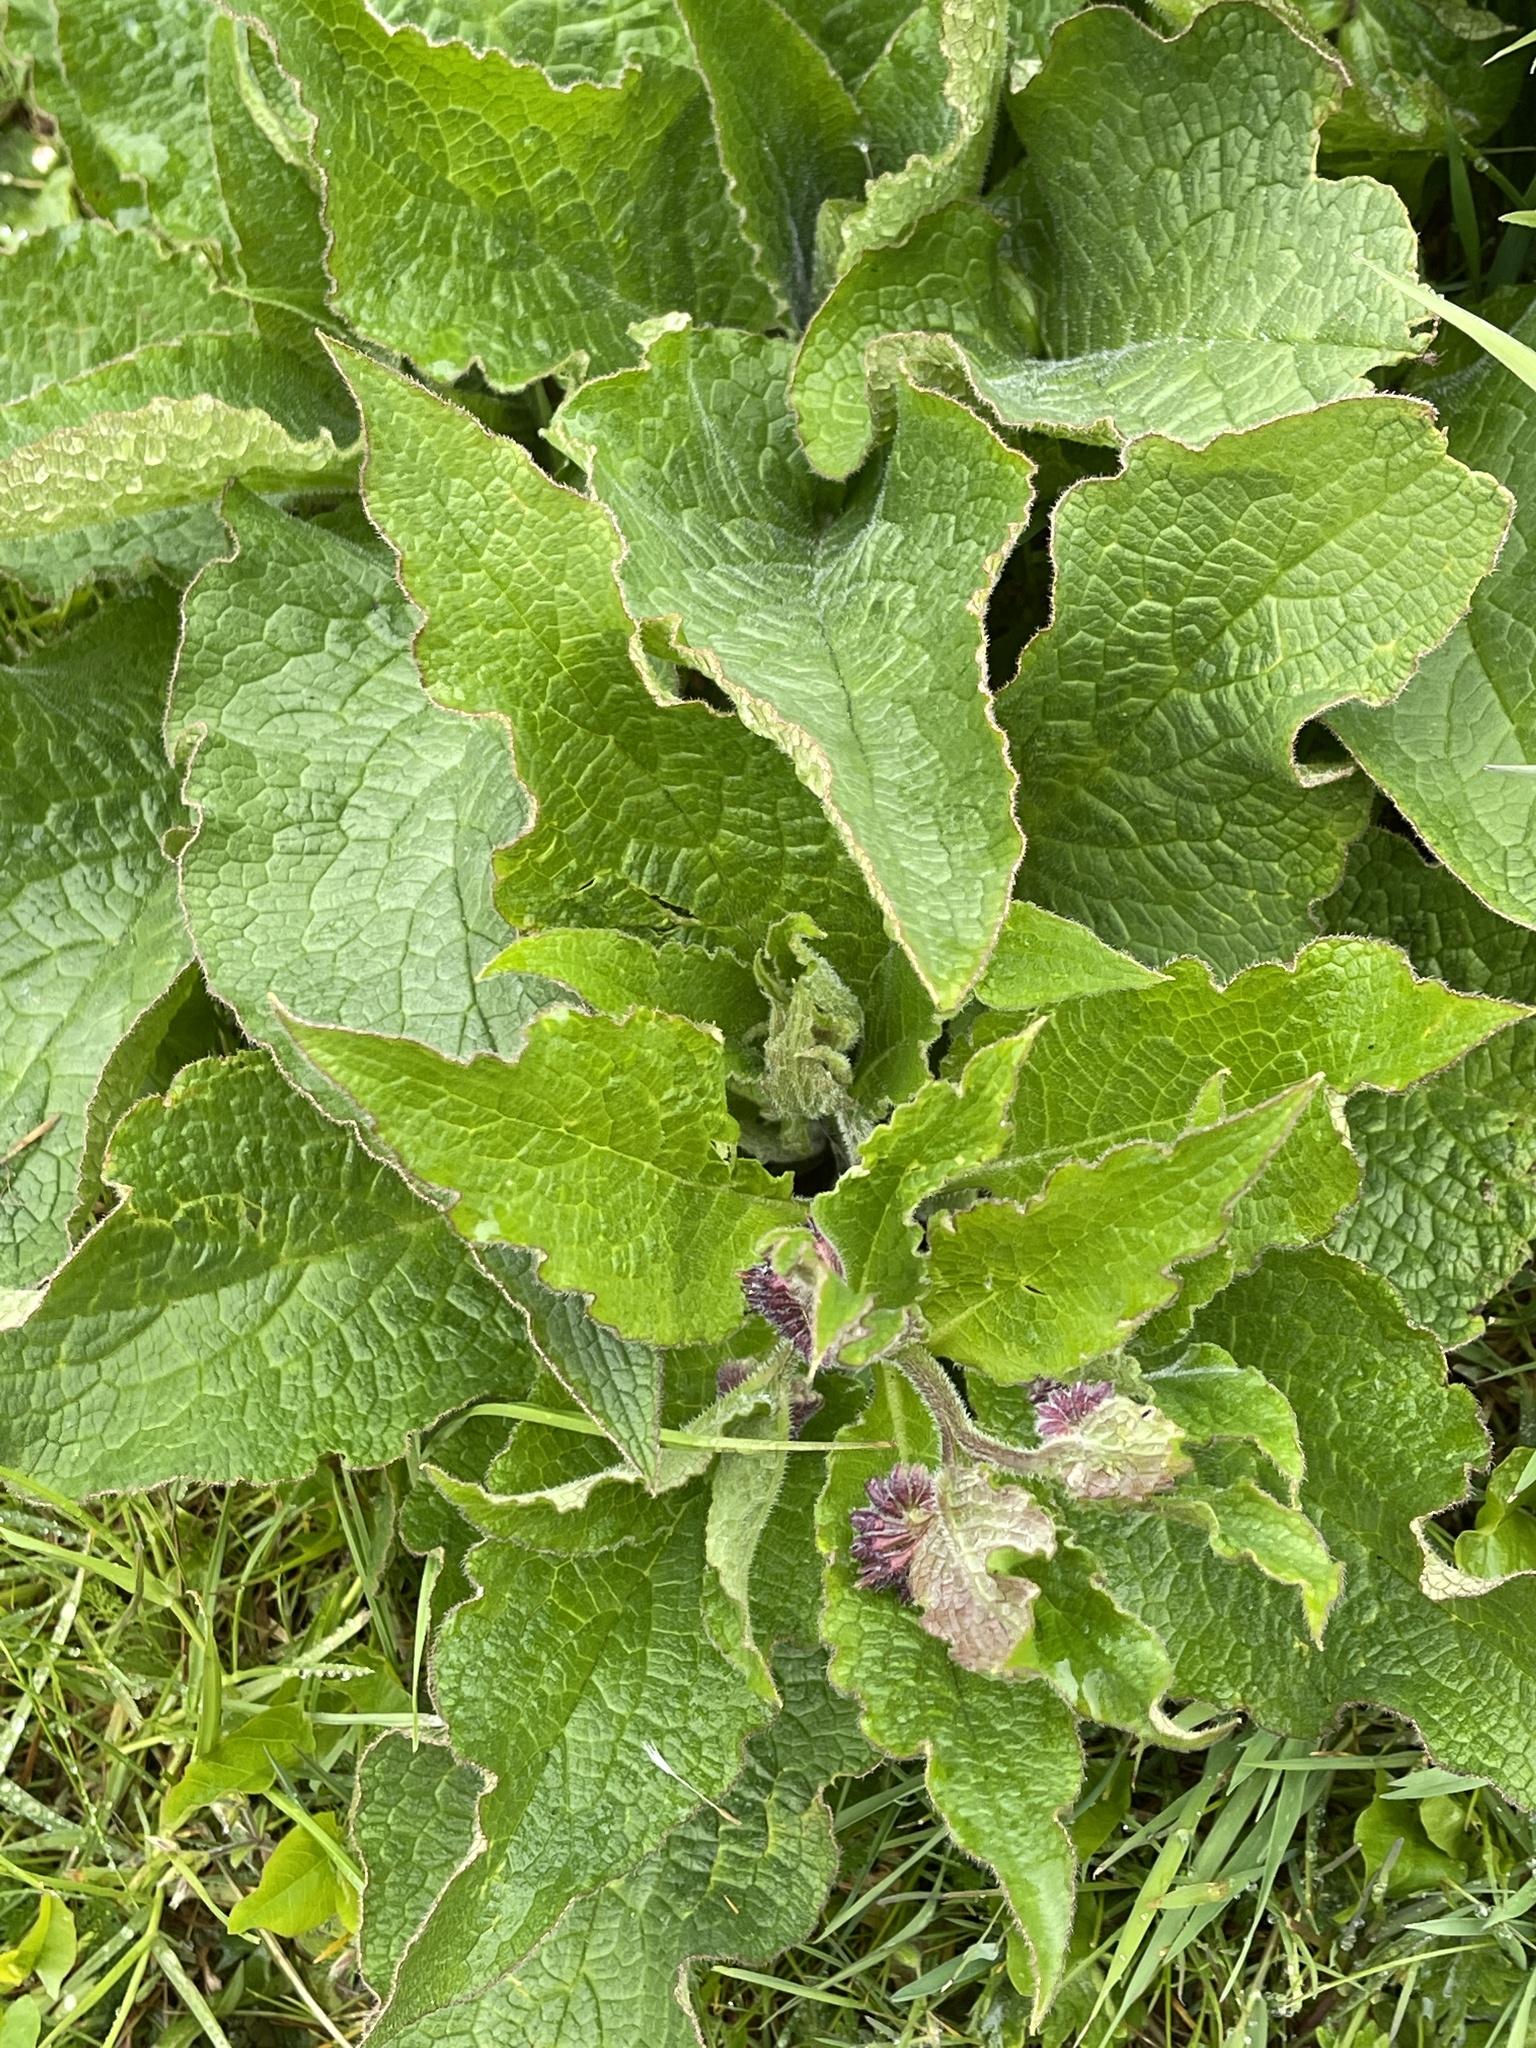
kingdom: Plantae
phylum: Tracheophyta
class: Magnoliopsida
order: Boraginales
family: Boraginaceae
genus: Symphytum
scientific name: Symphytum uplandicum
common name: Russian comfrey
